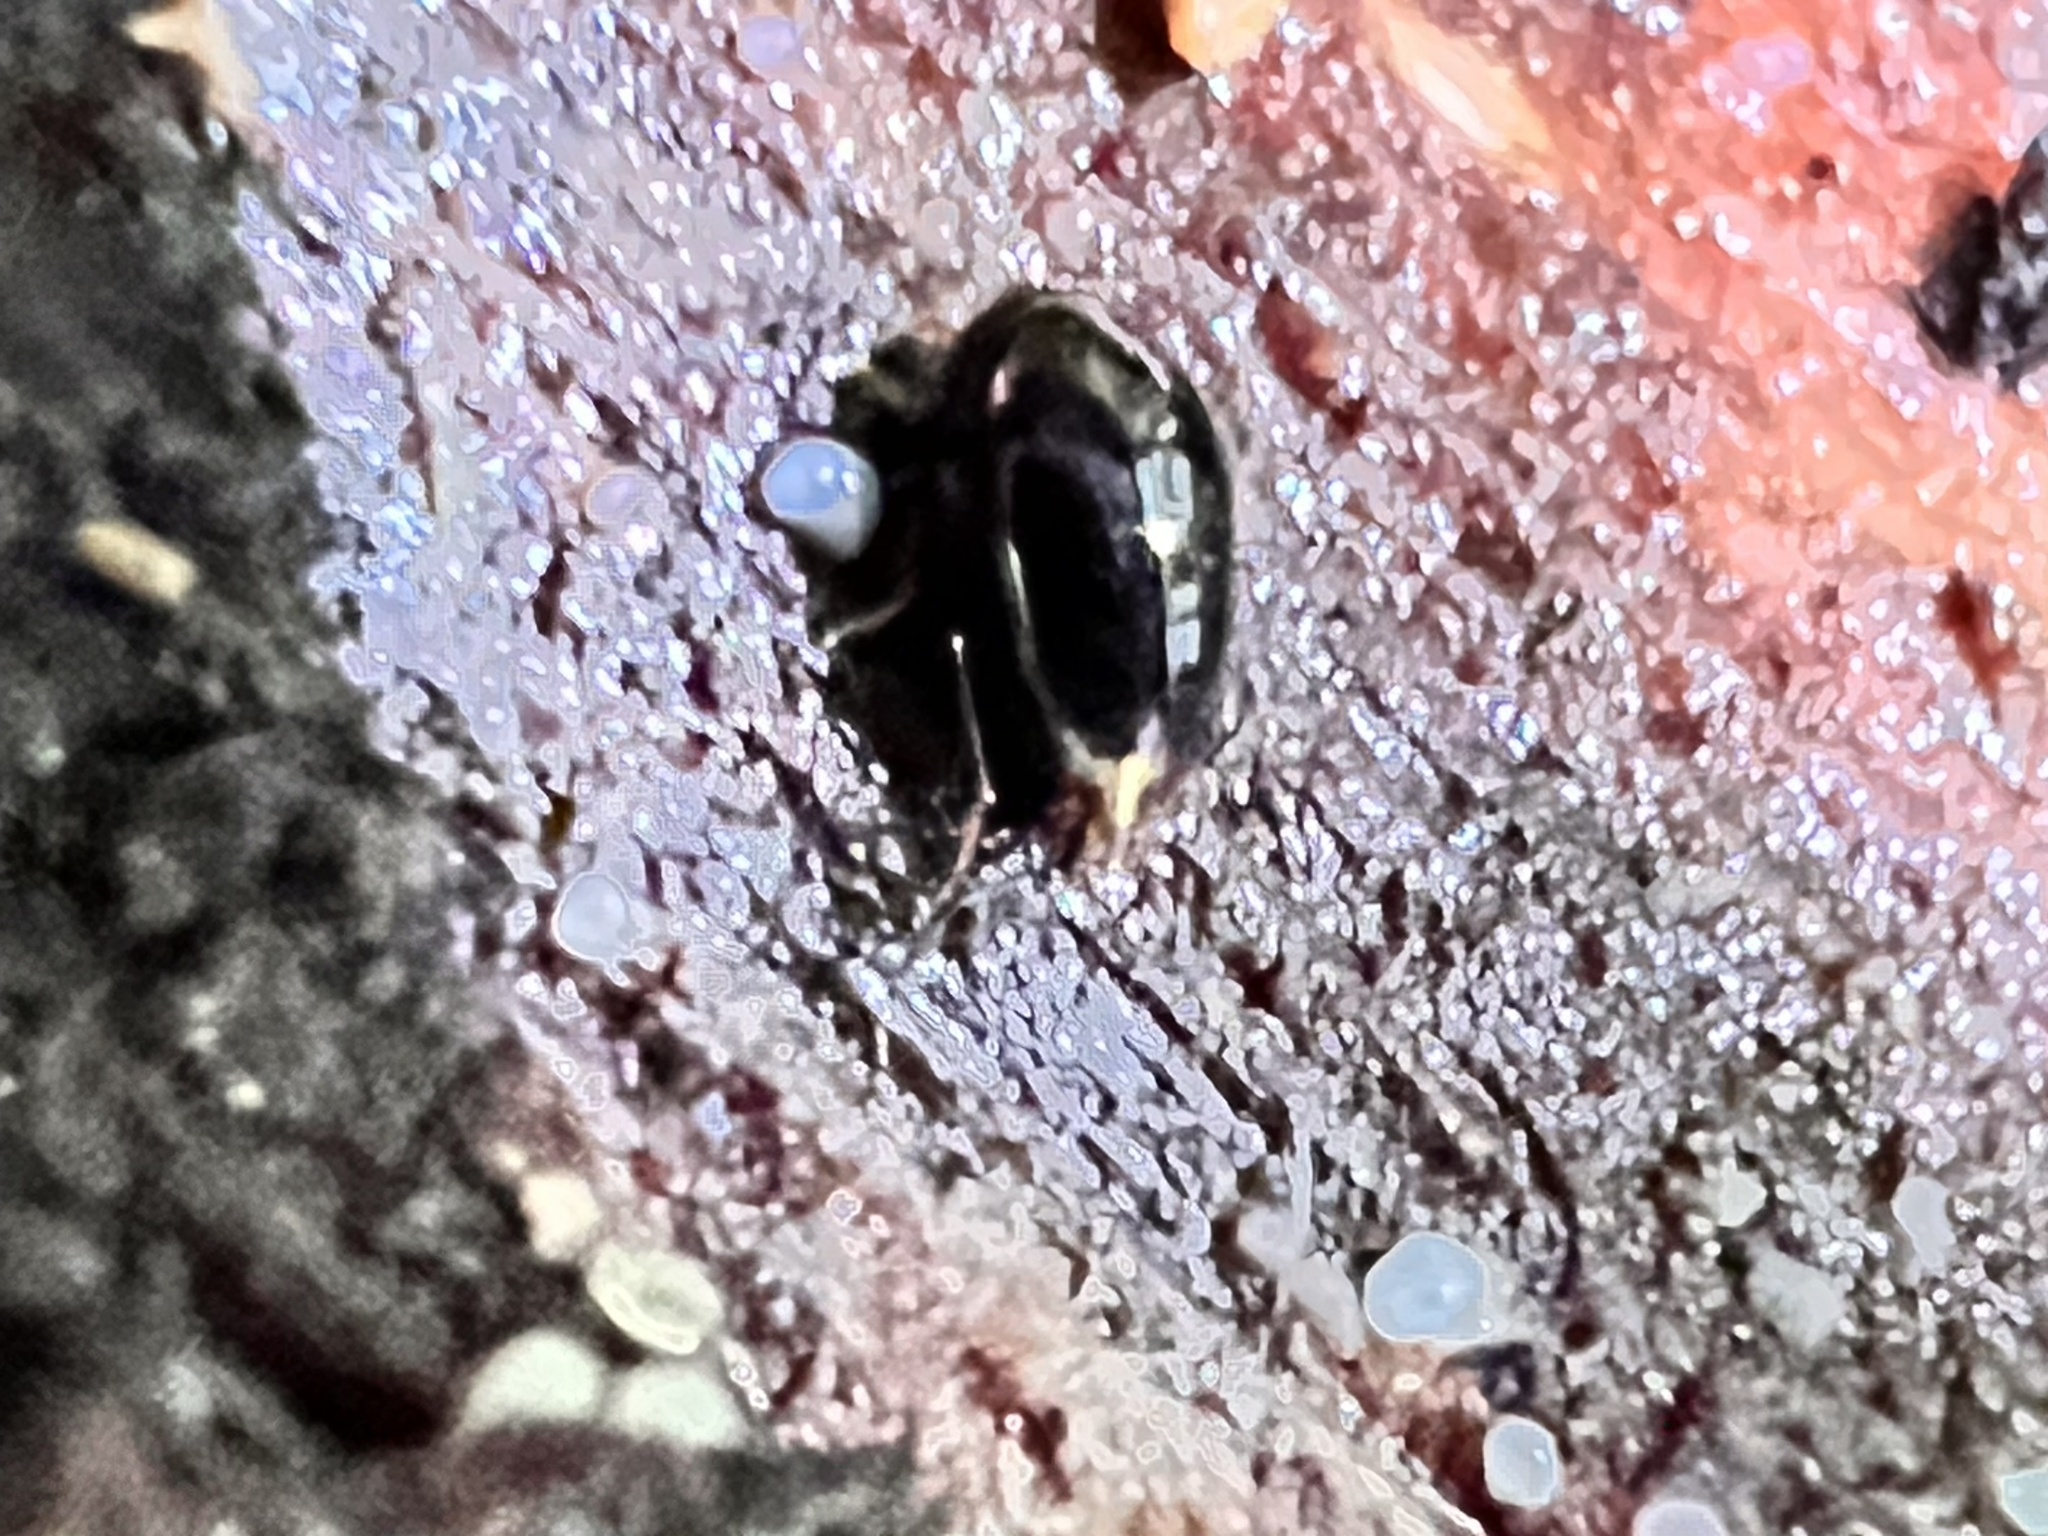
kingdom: Animalia
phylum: Arthropoda
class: Insecta
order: Coleoptera
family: Staphylinidae
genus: Brachynopus
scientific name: Brachynopus scutellaris
